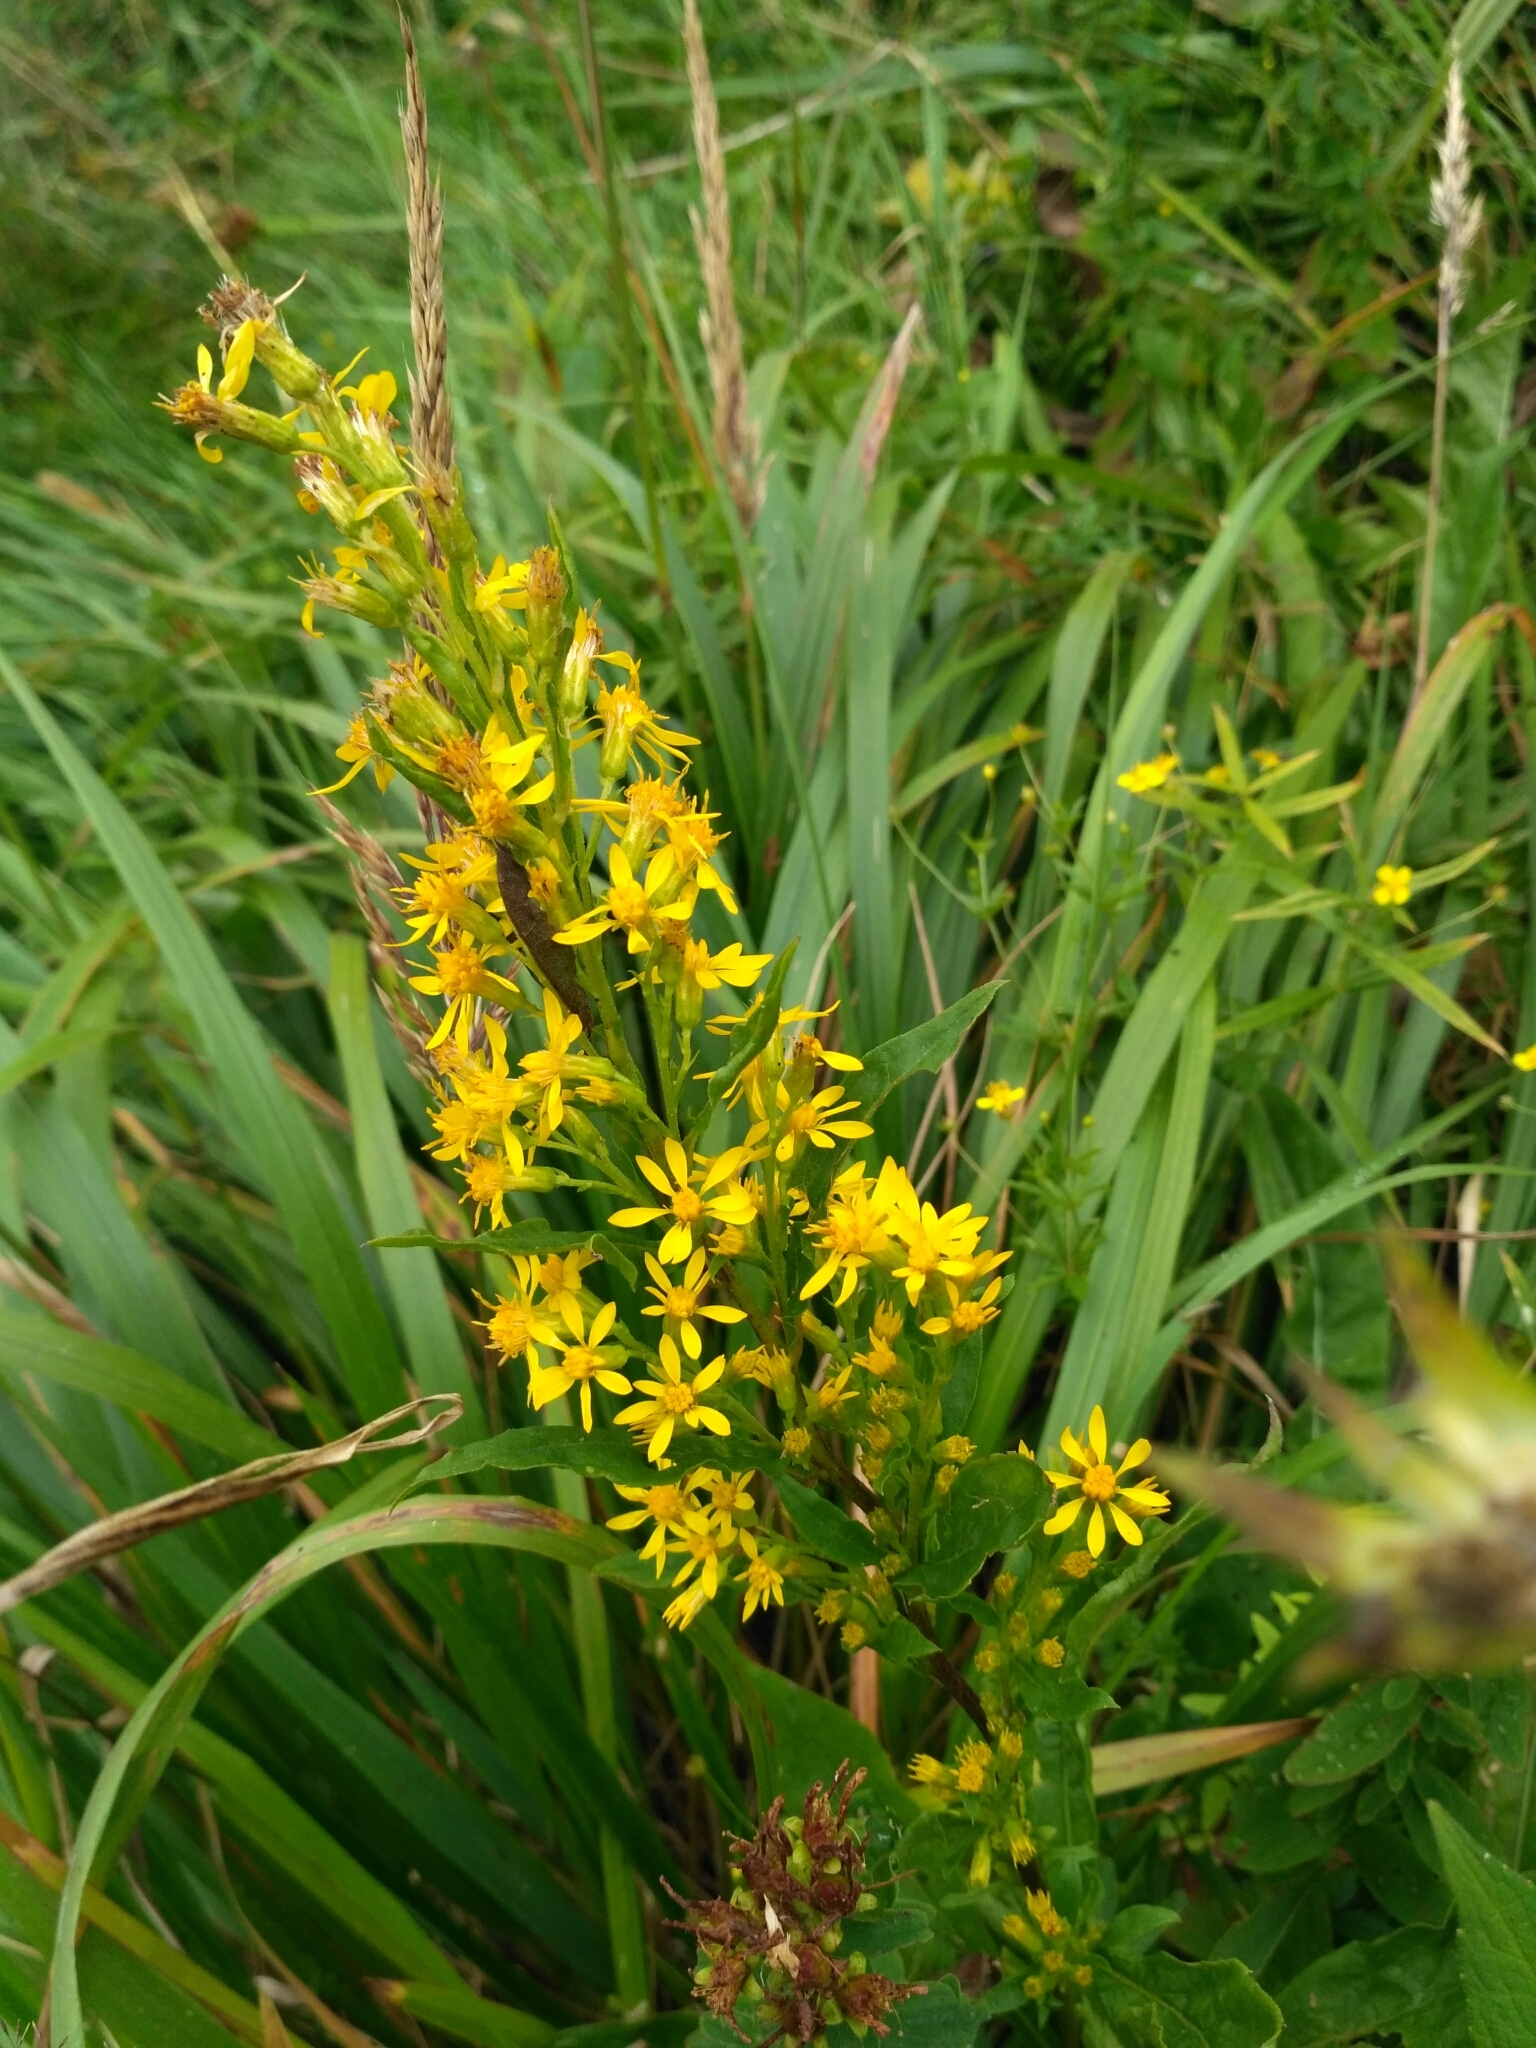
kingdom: Plantae
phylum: Tracheophyta
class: Magnoliopsida
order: Asterales
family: Asteraceae
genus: Solidago
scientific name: Solidago virgaurea
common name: Goldenrod
